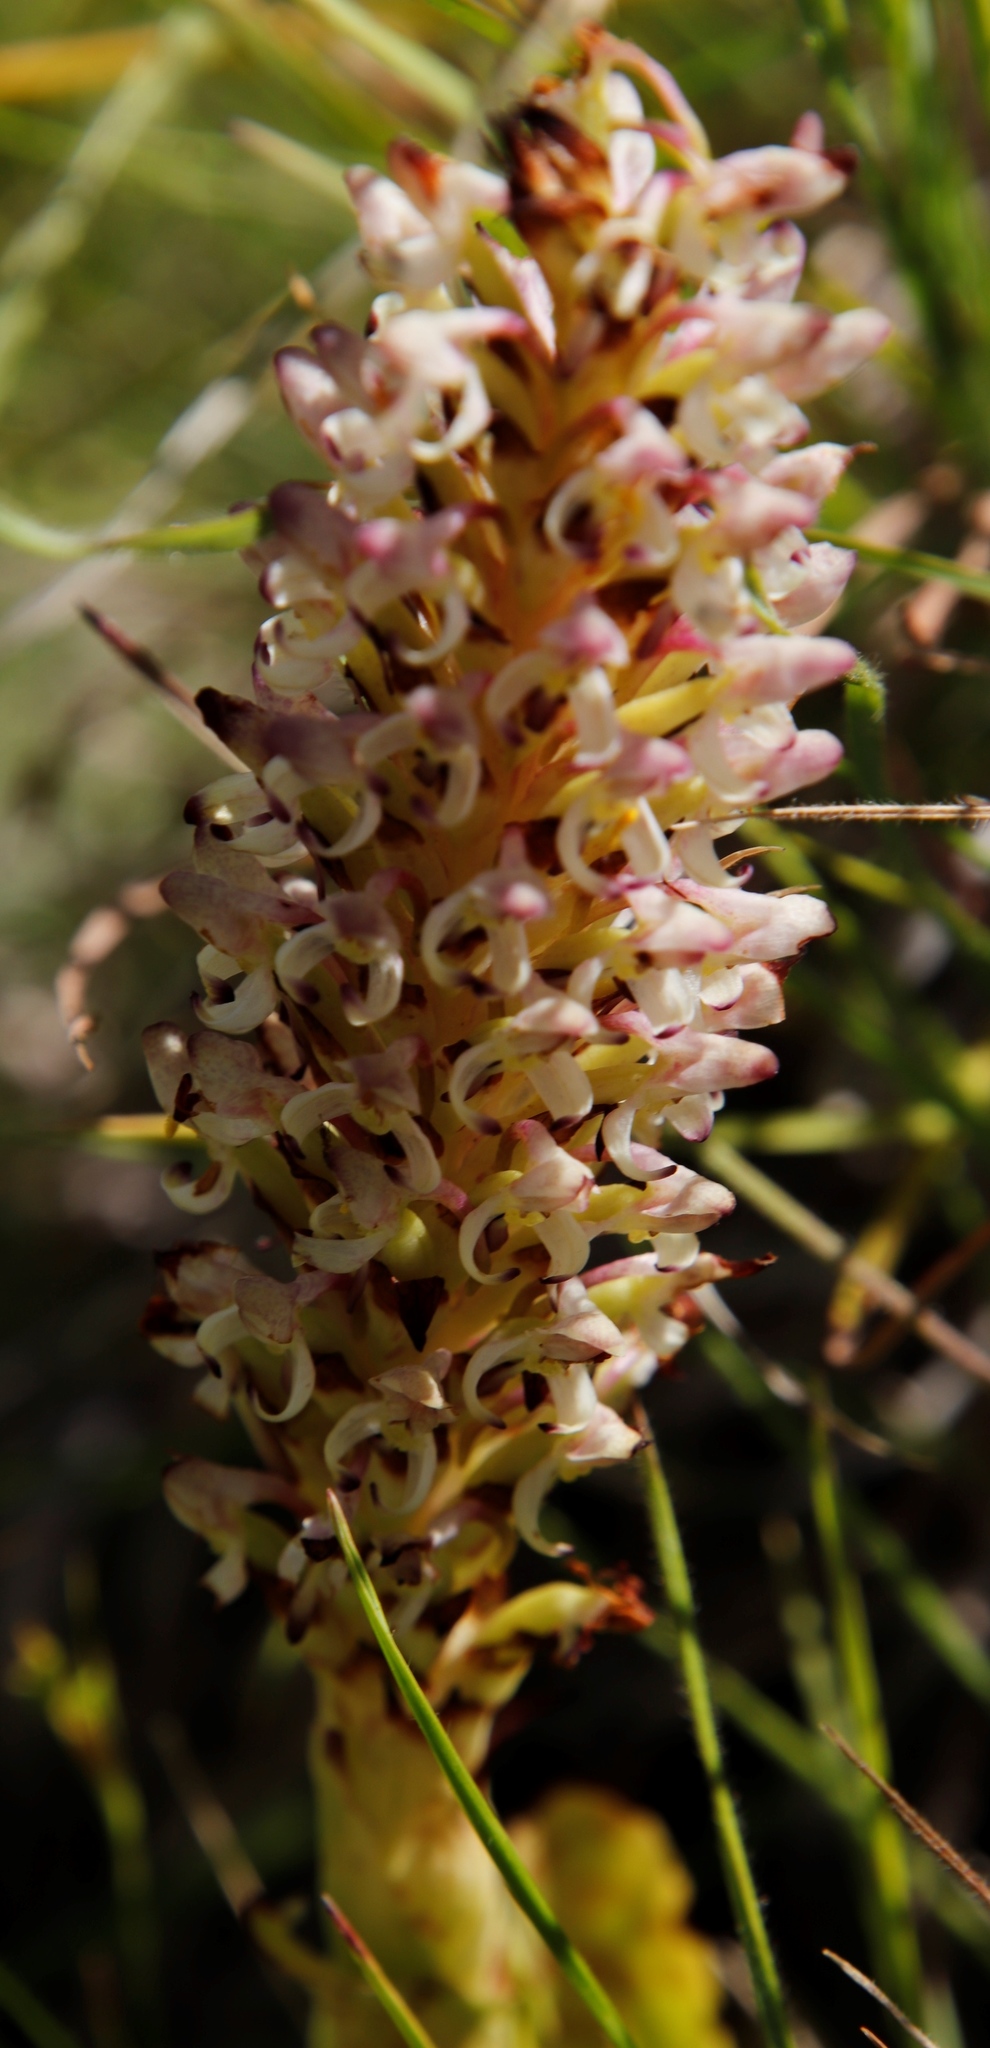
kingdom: Plantae
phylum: Tracheophyta
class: Liliopsida
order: Asparagales
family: Orchidaceae
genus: Disa
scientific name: Disa fragrans
